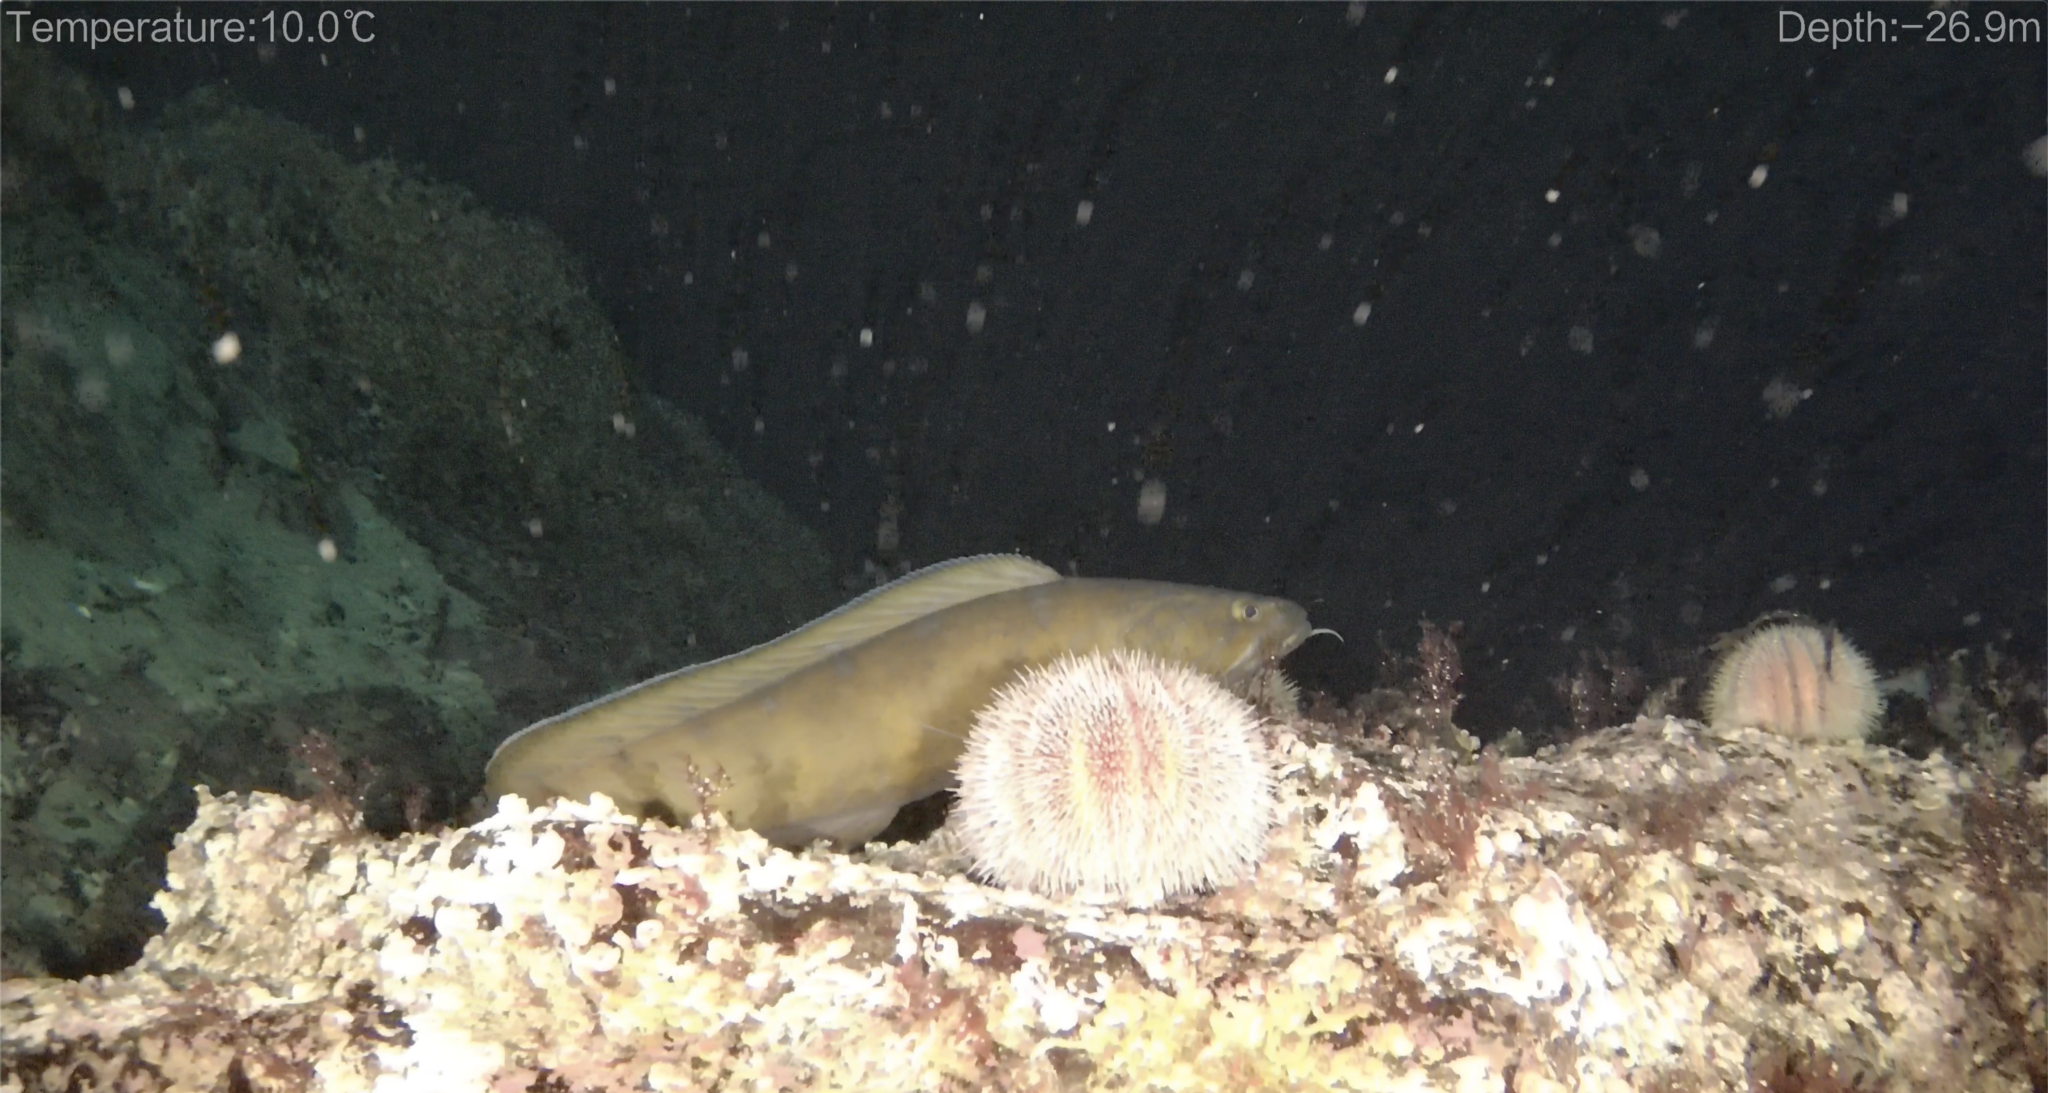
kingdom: Animalia
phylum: Chordata
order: Gadiformes
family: Lotidae
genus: Brosme
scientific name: Brosme brosme
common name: Cusk
